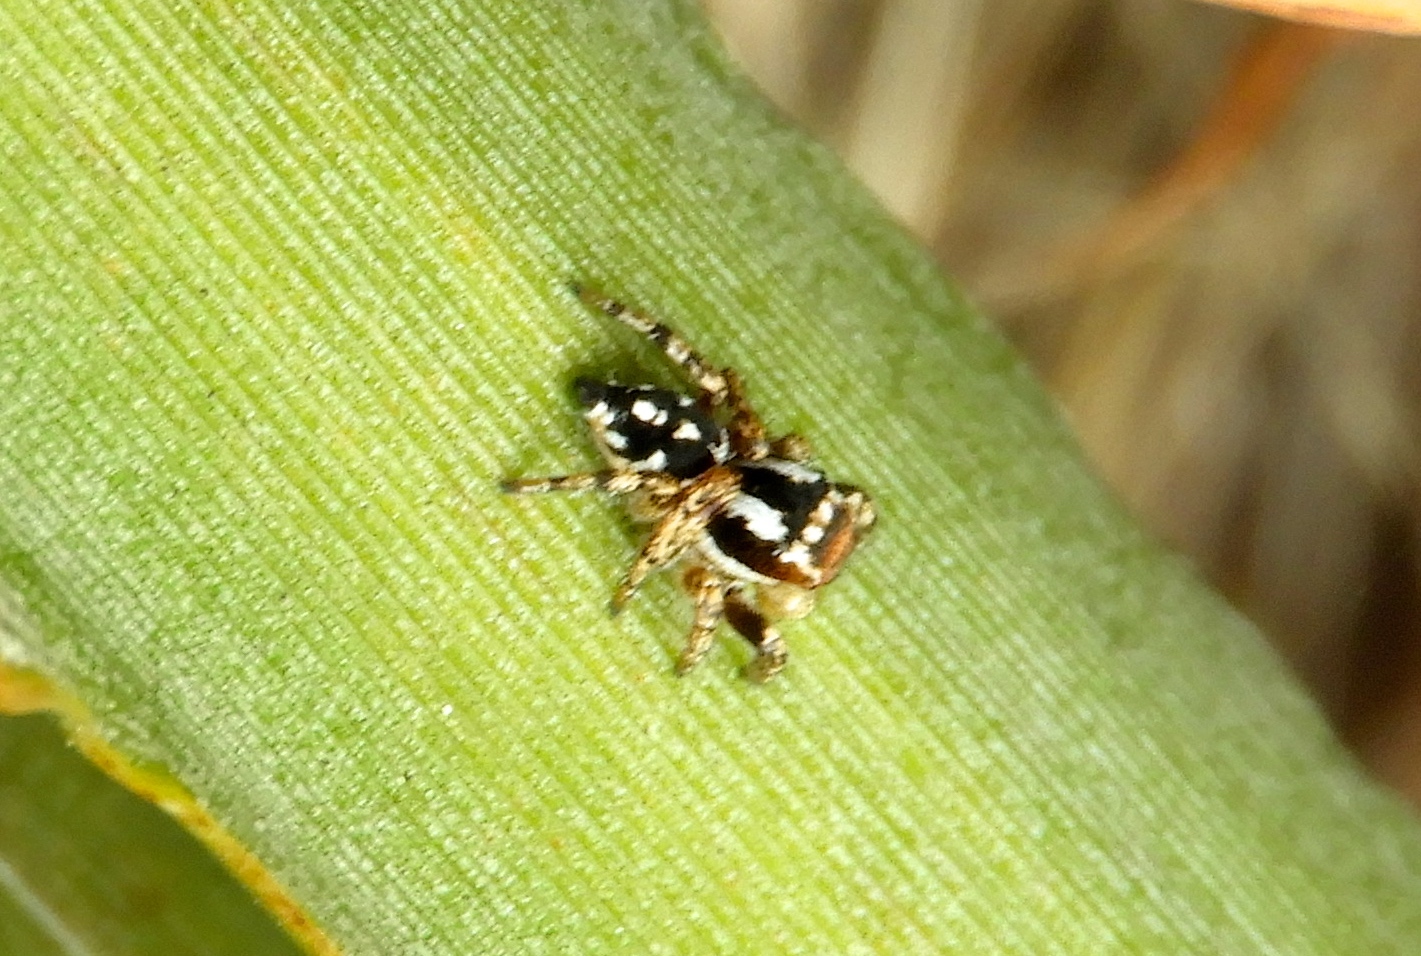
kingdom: Animalia
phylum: Arthropoda
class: Arachnida
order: Araneae
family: Salticidae
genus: Habronattus
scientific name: Habronattus contingens
